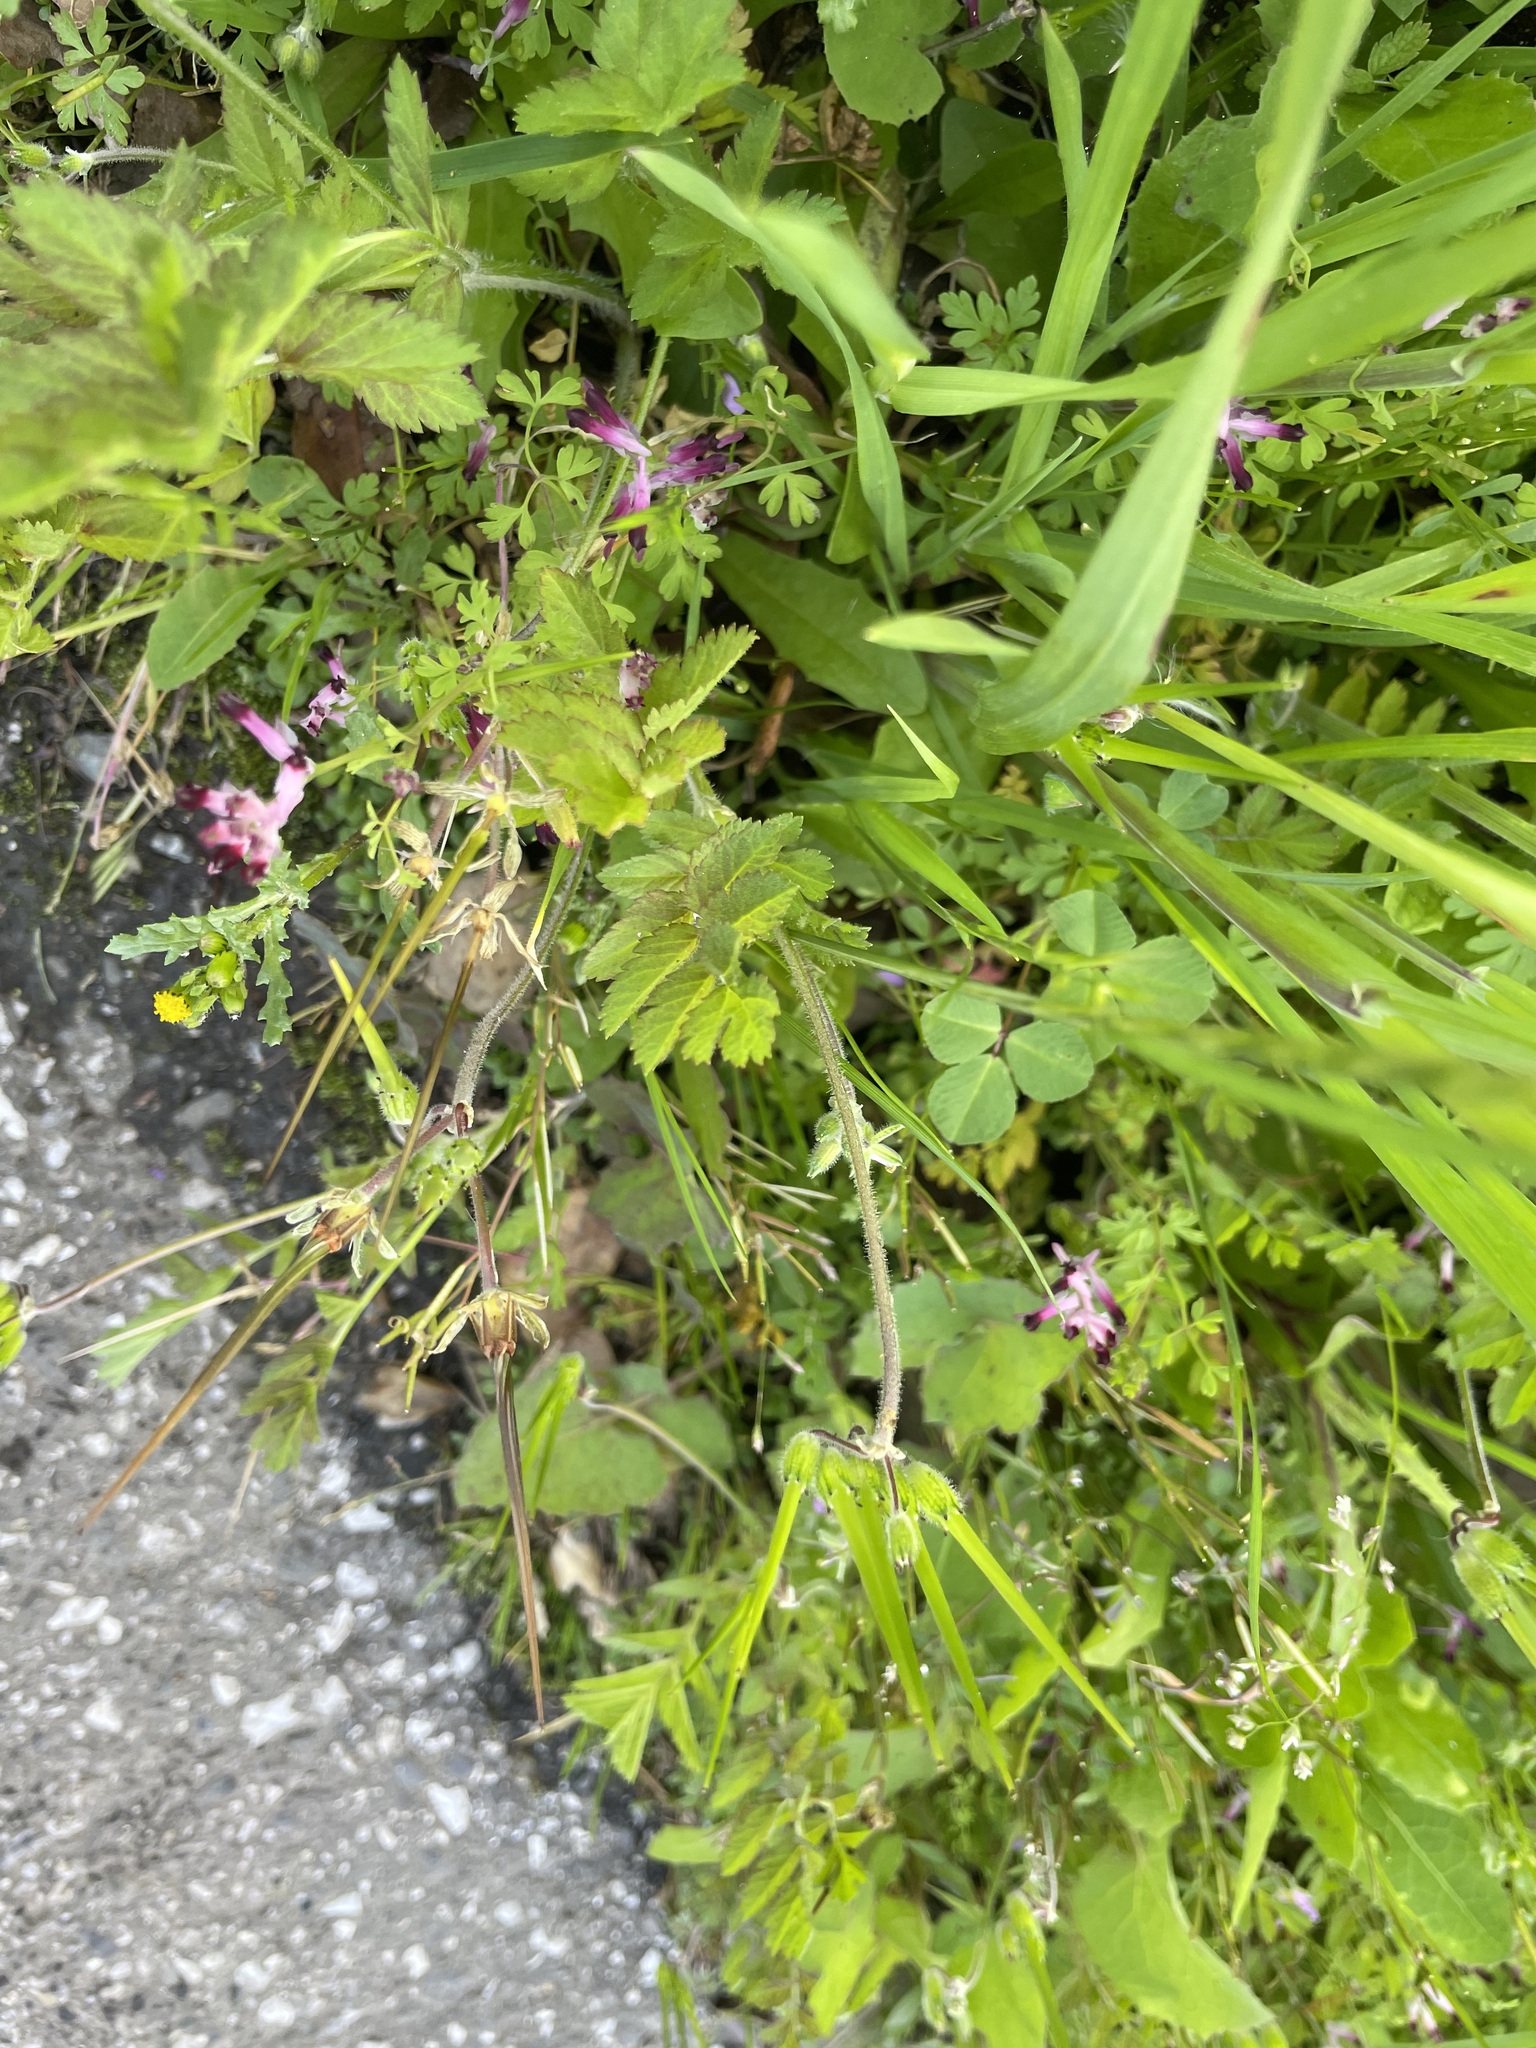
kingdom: Plantae
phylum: Tracheophyta
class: Magnoliopsida
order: Geraniales
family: Geraniaceae
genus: Erodium
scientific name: Erodium moschatum
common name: Musk stork's-bill
